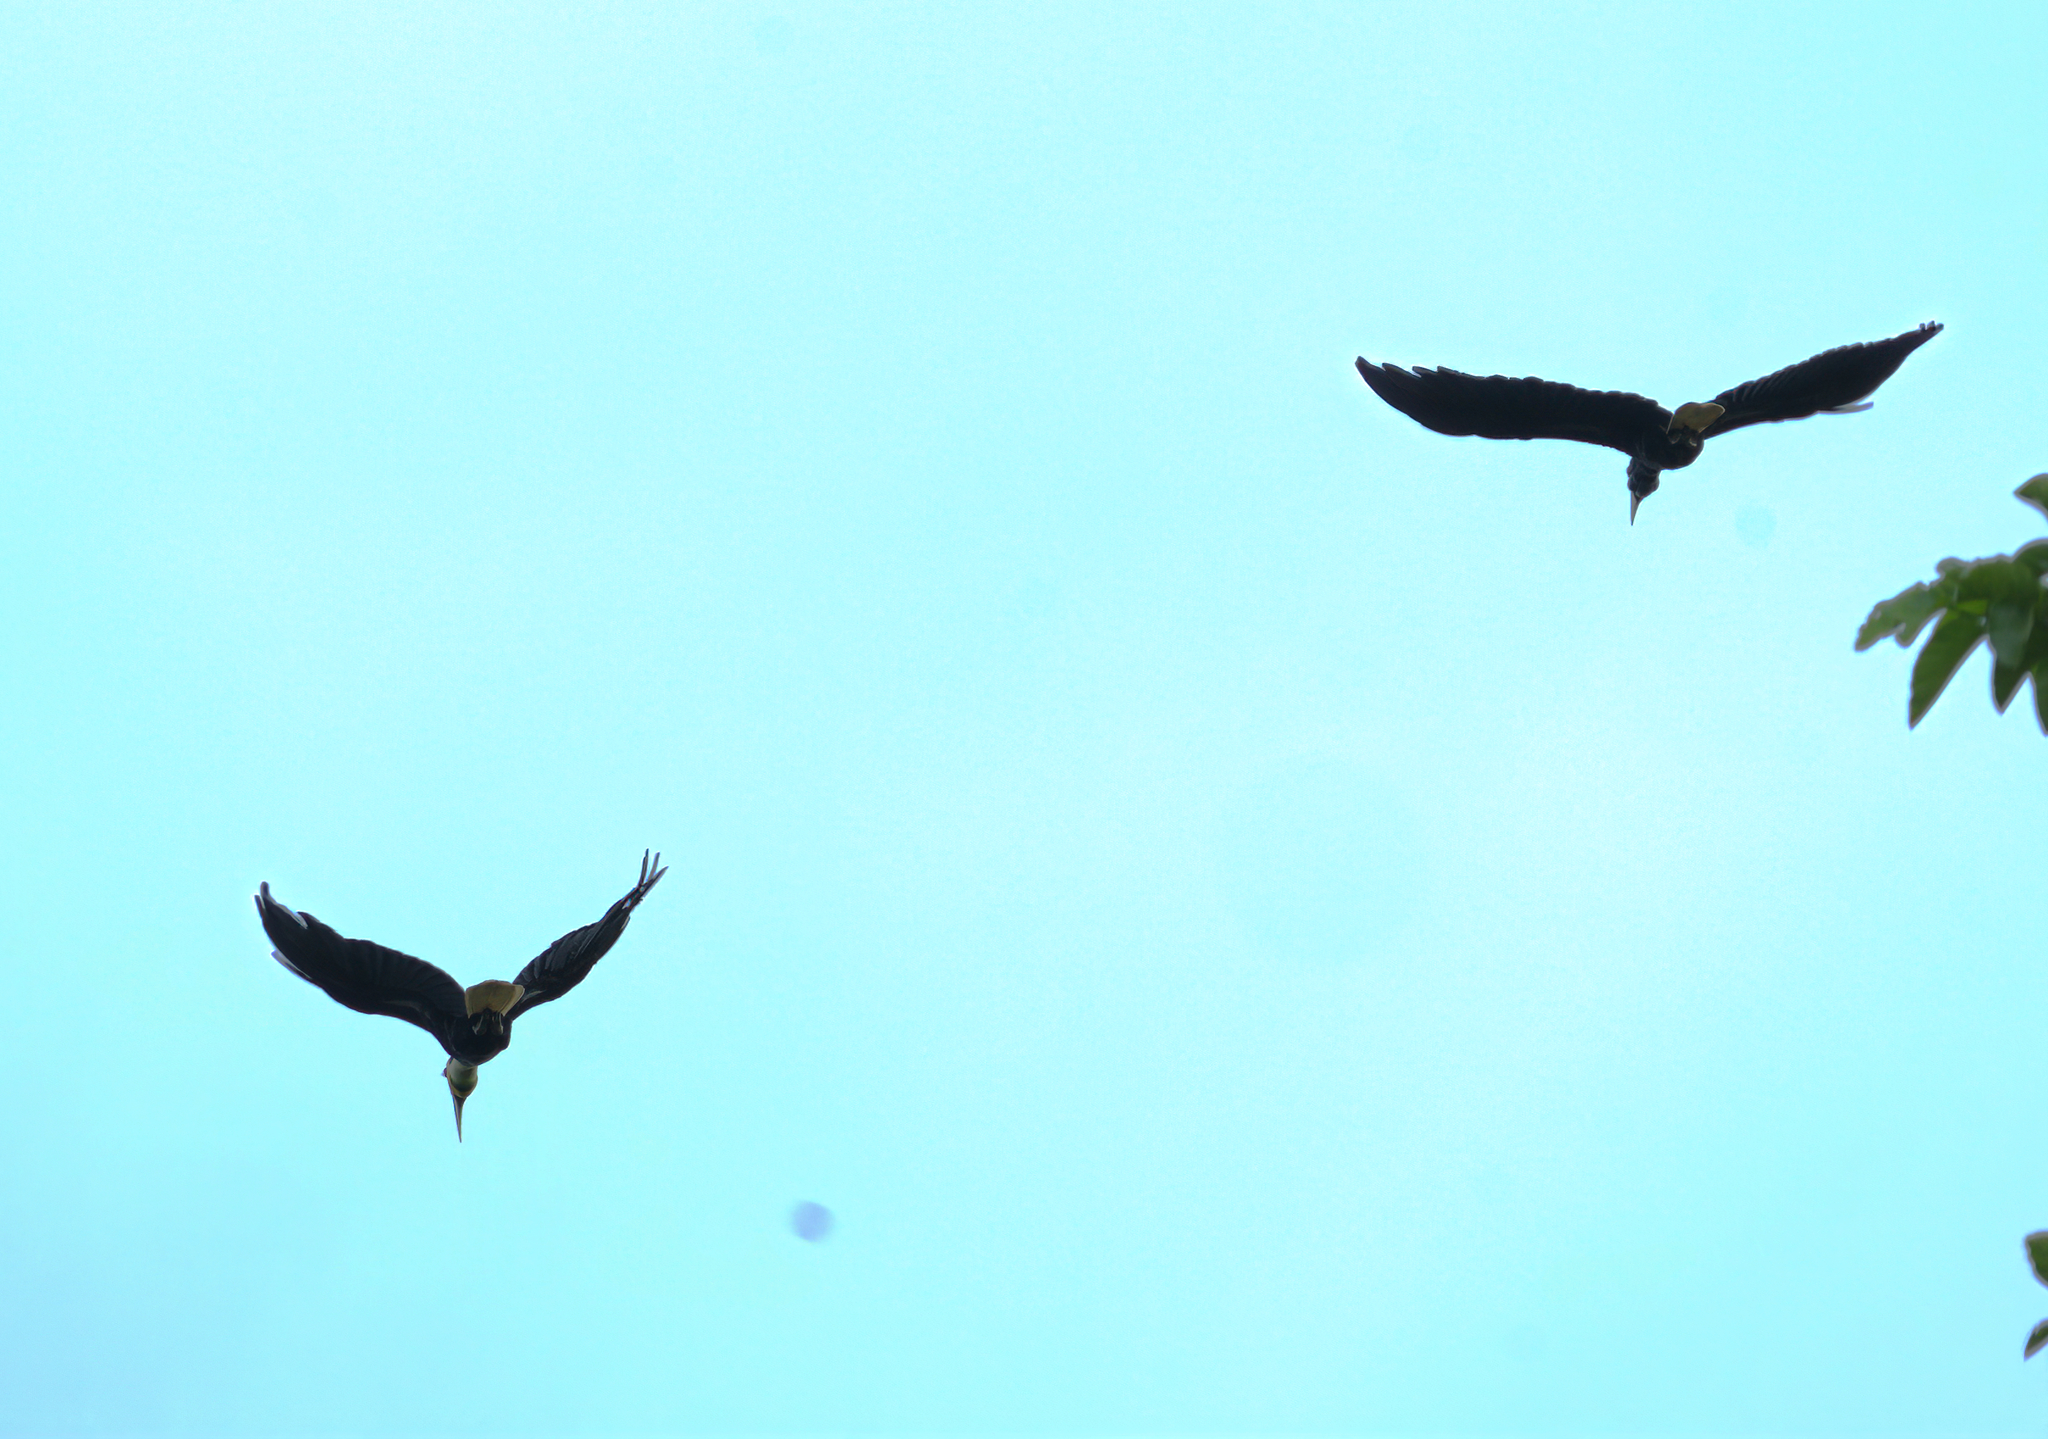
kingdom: Animalia
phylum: Chordata
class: Aves
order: Bucerotiformes
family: Bucerotidae
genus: Rhyticeros
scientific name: Rhyticeros undulatus
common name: Wreathed hornbill
